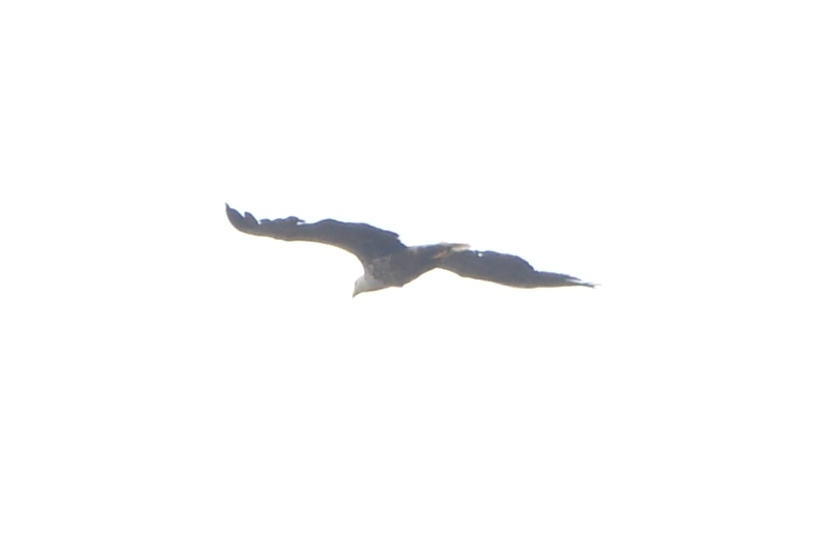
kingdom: Animalia
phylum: Chordata
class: Aves
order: Accipitriformes
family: Accipitridae
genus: Haliaeetus
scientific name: Haliaeetus albicilla
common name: White-tailed eagle
